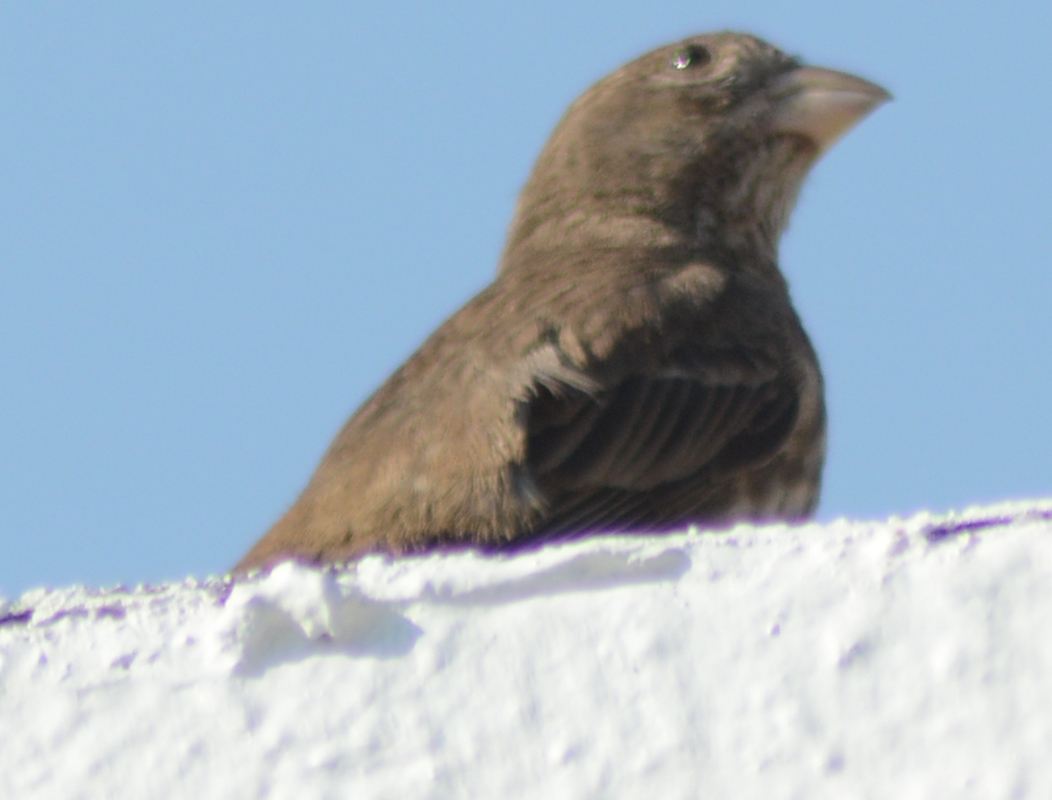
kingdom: Animalia
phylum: Chordata
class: Aves
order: Passeriformes
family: Fringillidae
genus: Haemorhous
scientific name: Haemorhous mexicanus
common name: House finch
